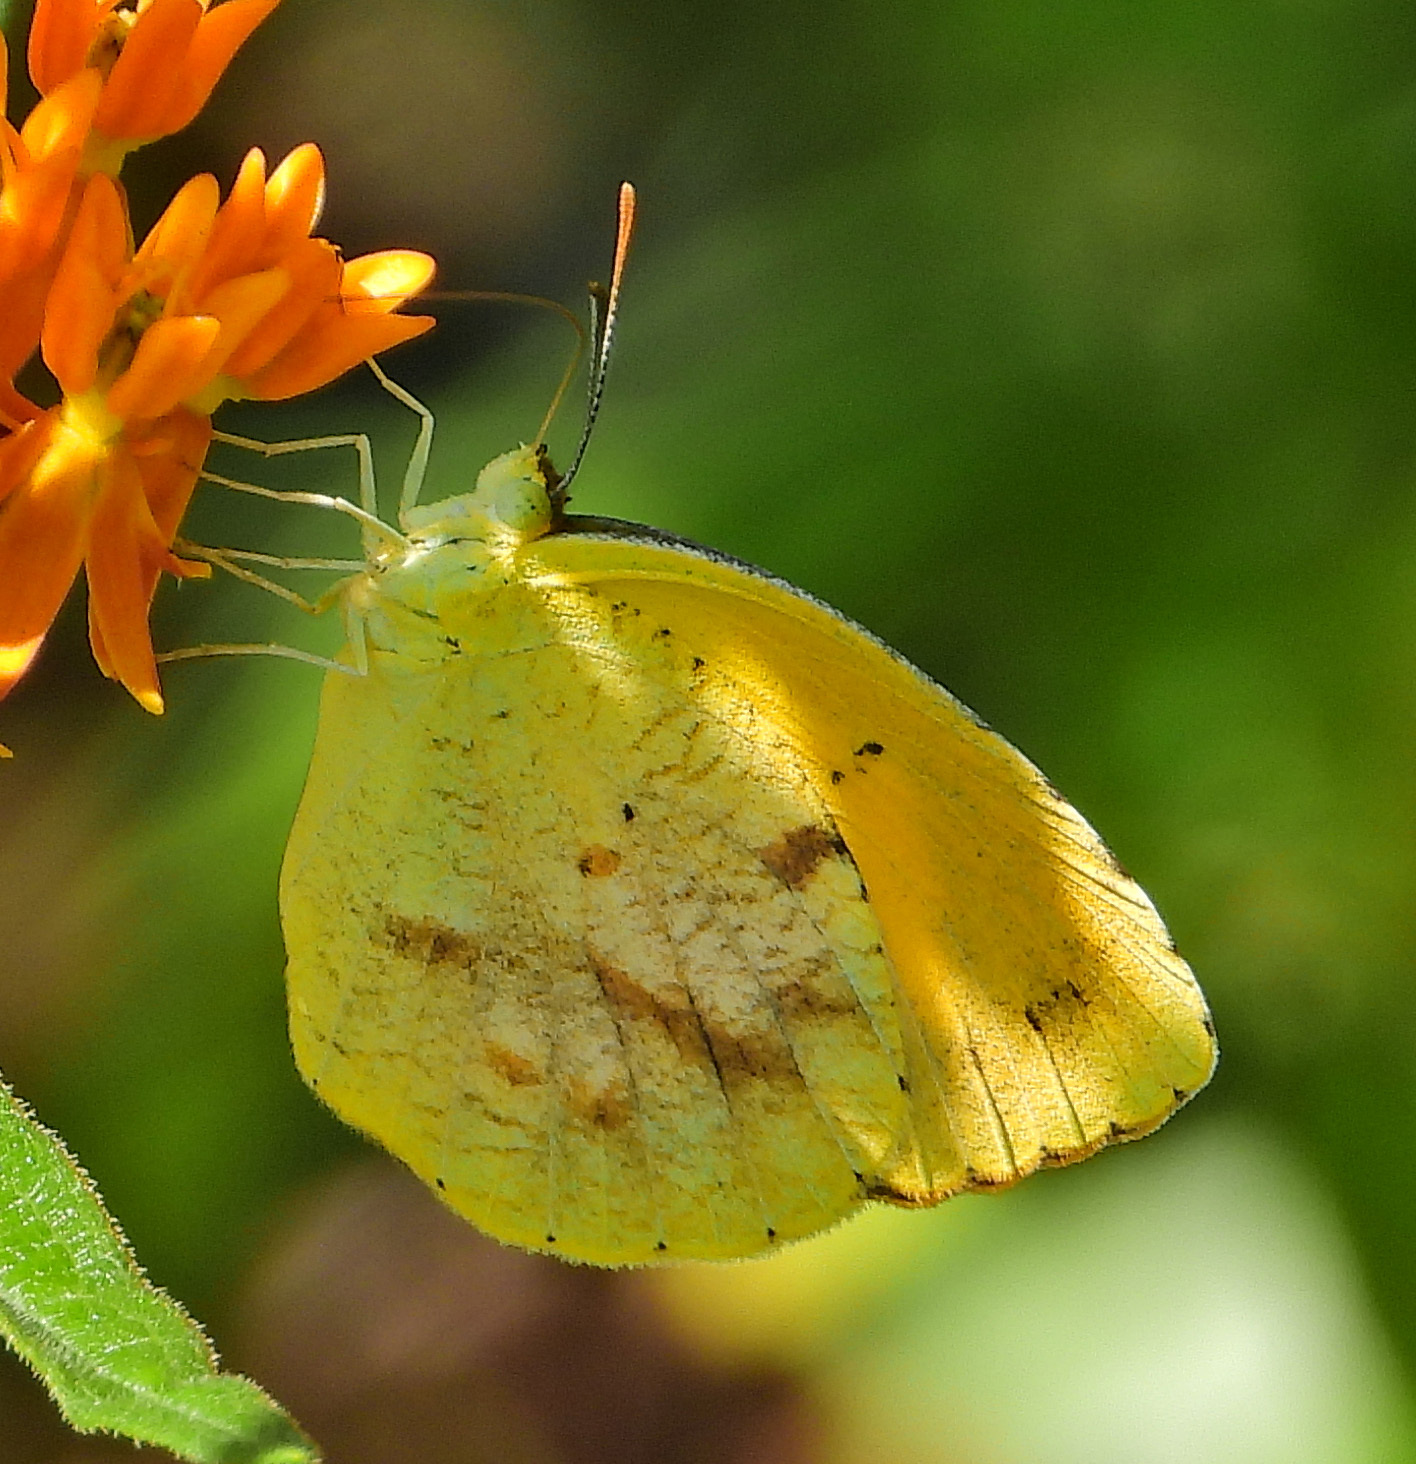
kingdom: Animalia
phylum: Arthropoda
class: Insecta
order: Lepidoptera
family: Pieridae
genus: Abaeis
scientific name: Abaeis nicippe
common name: Sleepy orange
